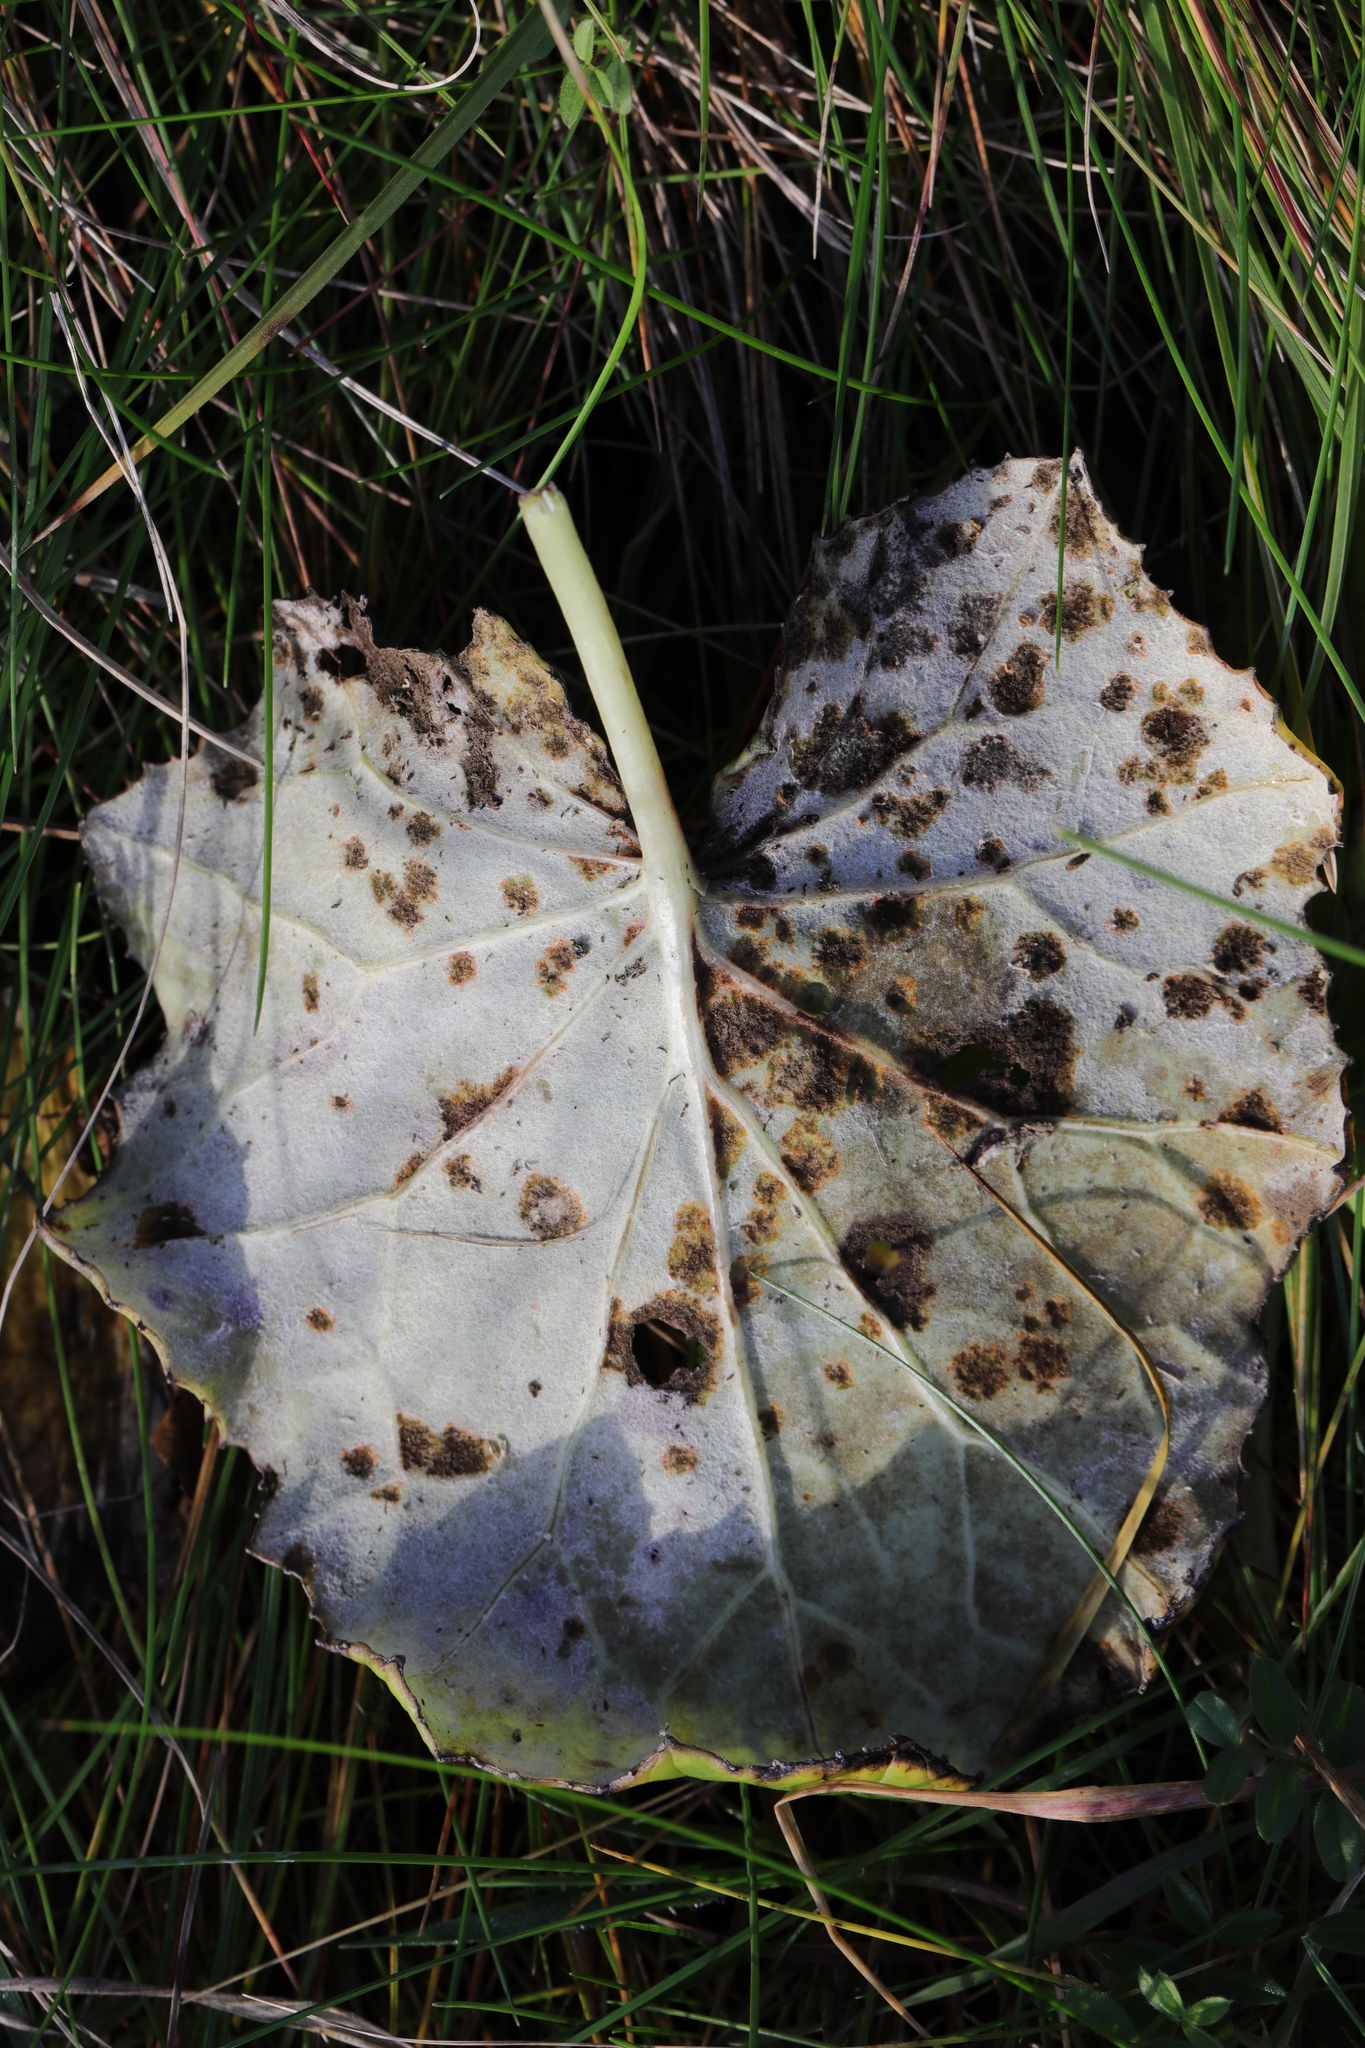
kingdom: Fungi
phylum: Basidiomycota
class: Pucciniomycetes
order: Pucciniales
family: Coleosporiaceae
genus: Coleosporium
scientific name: Coleosporium tussilaginis
